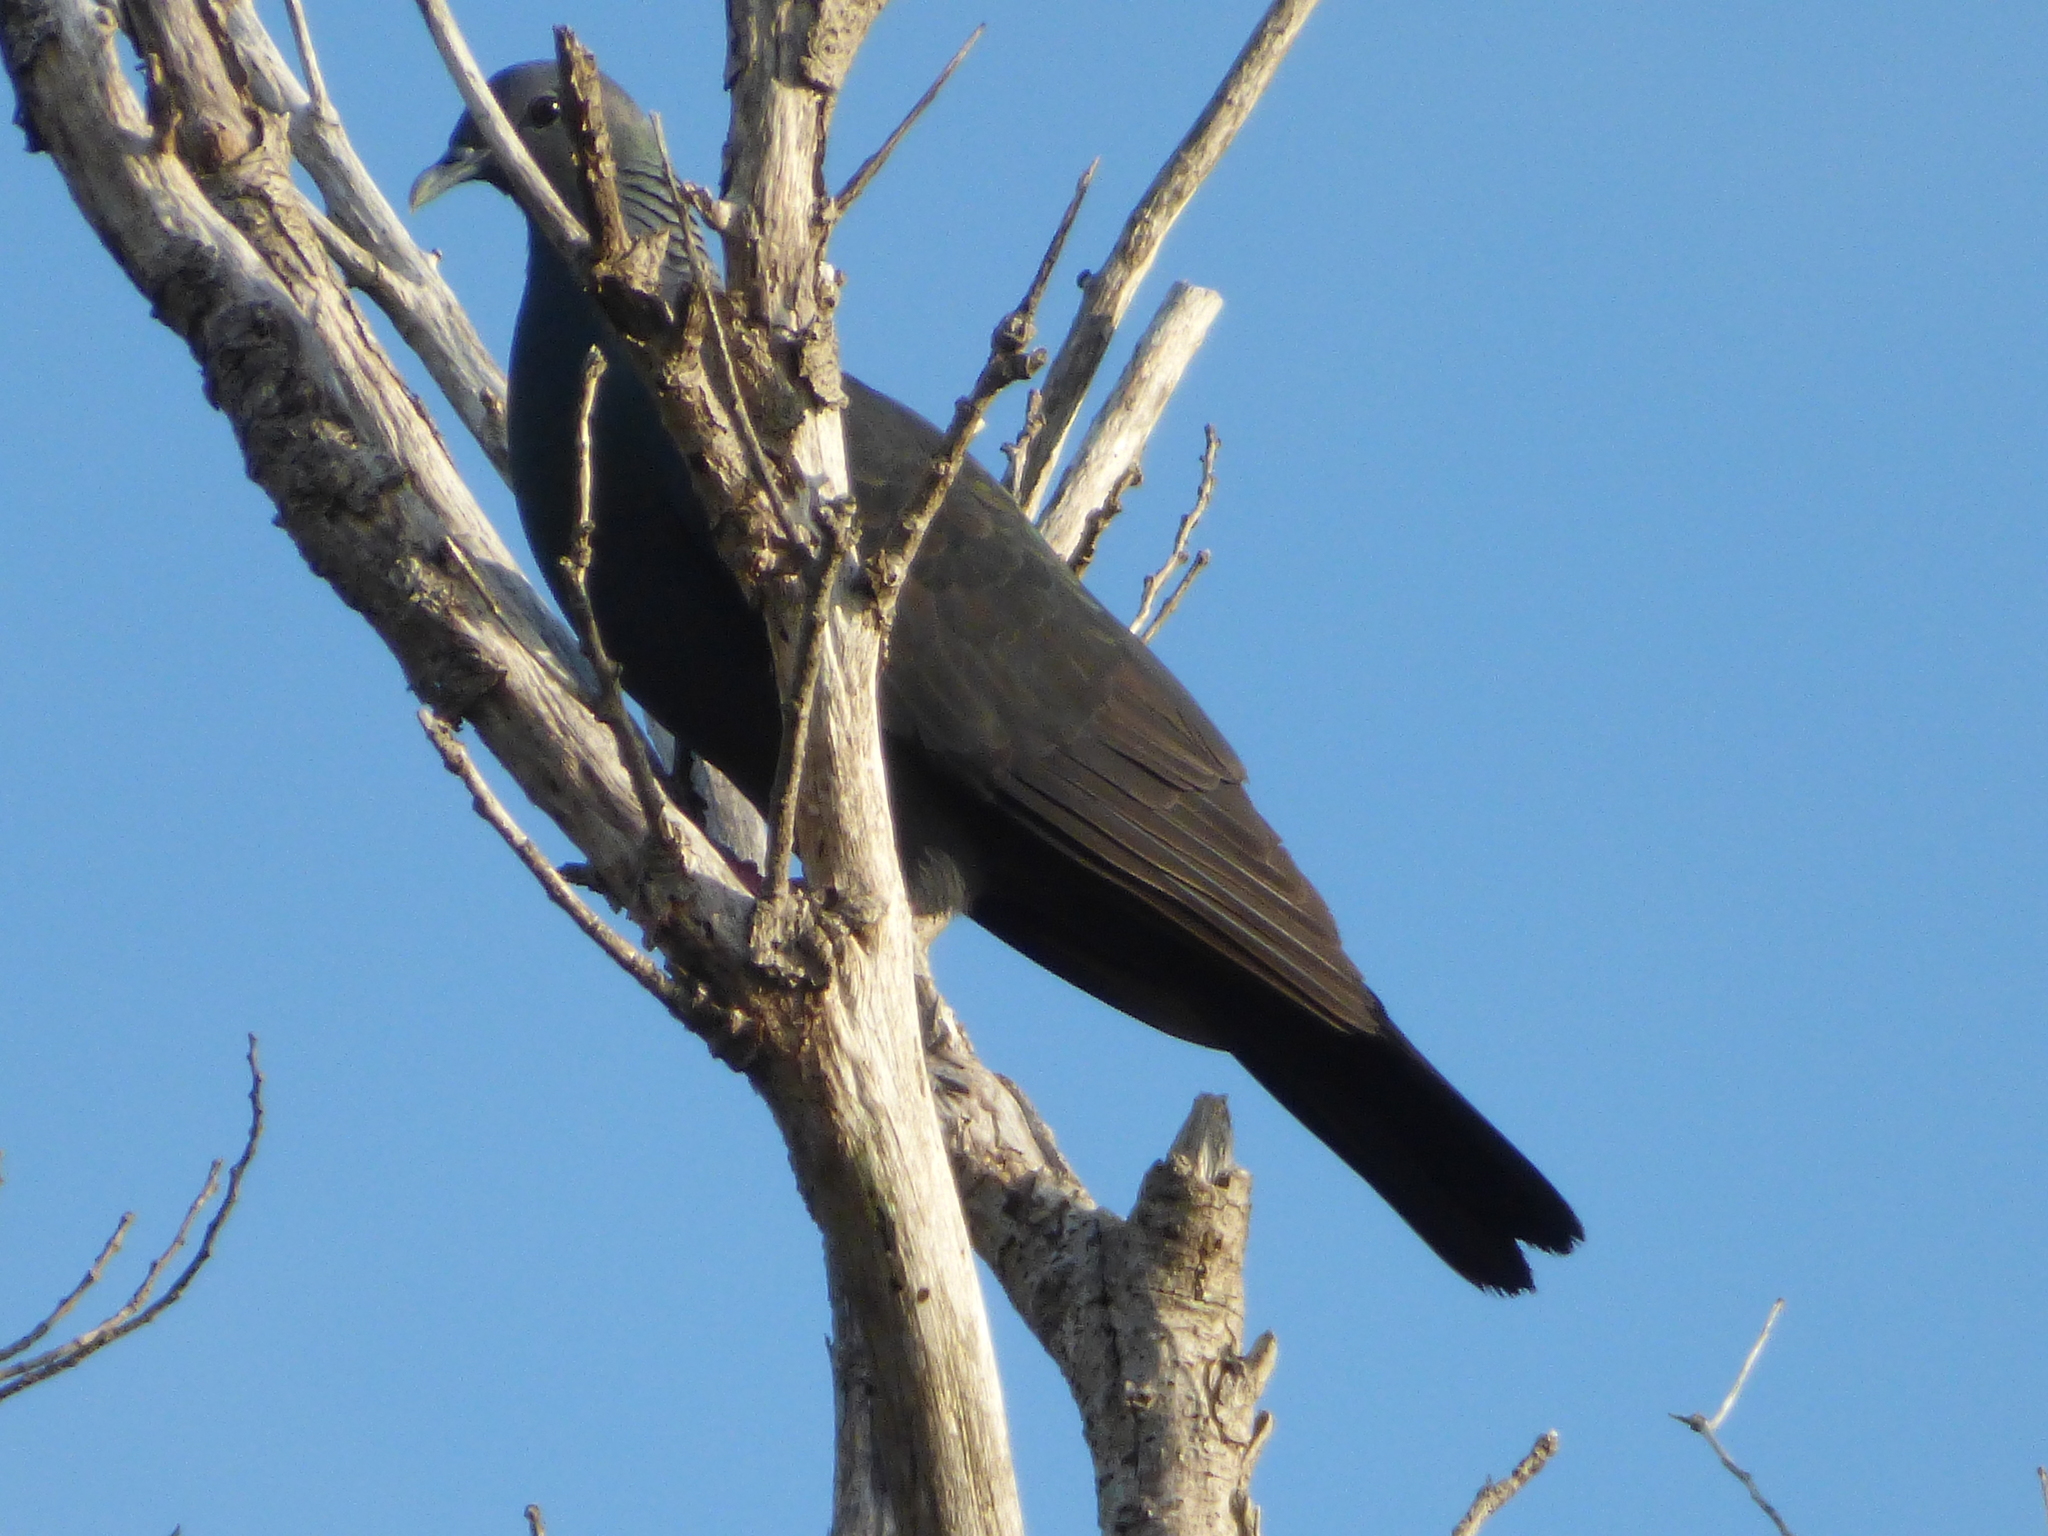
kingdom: Animalia
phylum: Chordata
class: Aves
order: Columbiformes
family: Columbidae
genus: Columba
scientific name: Columba janthina
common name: Japanese wood pigeon
